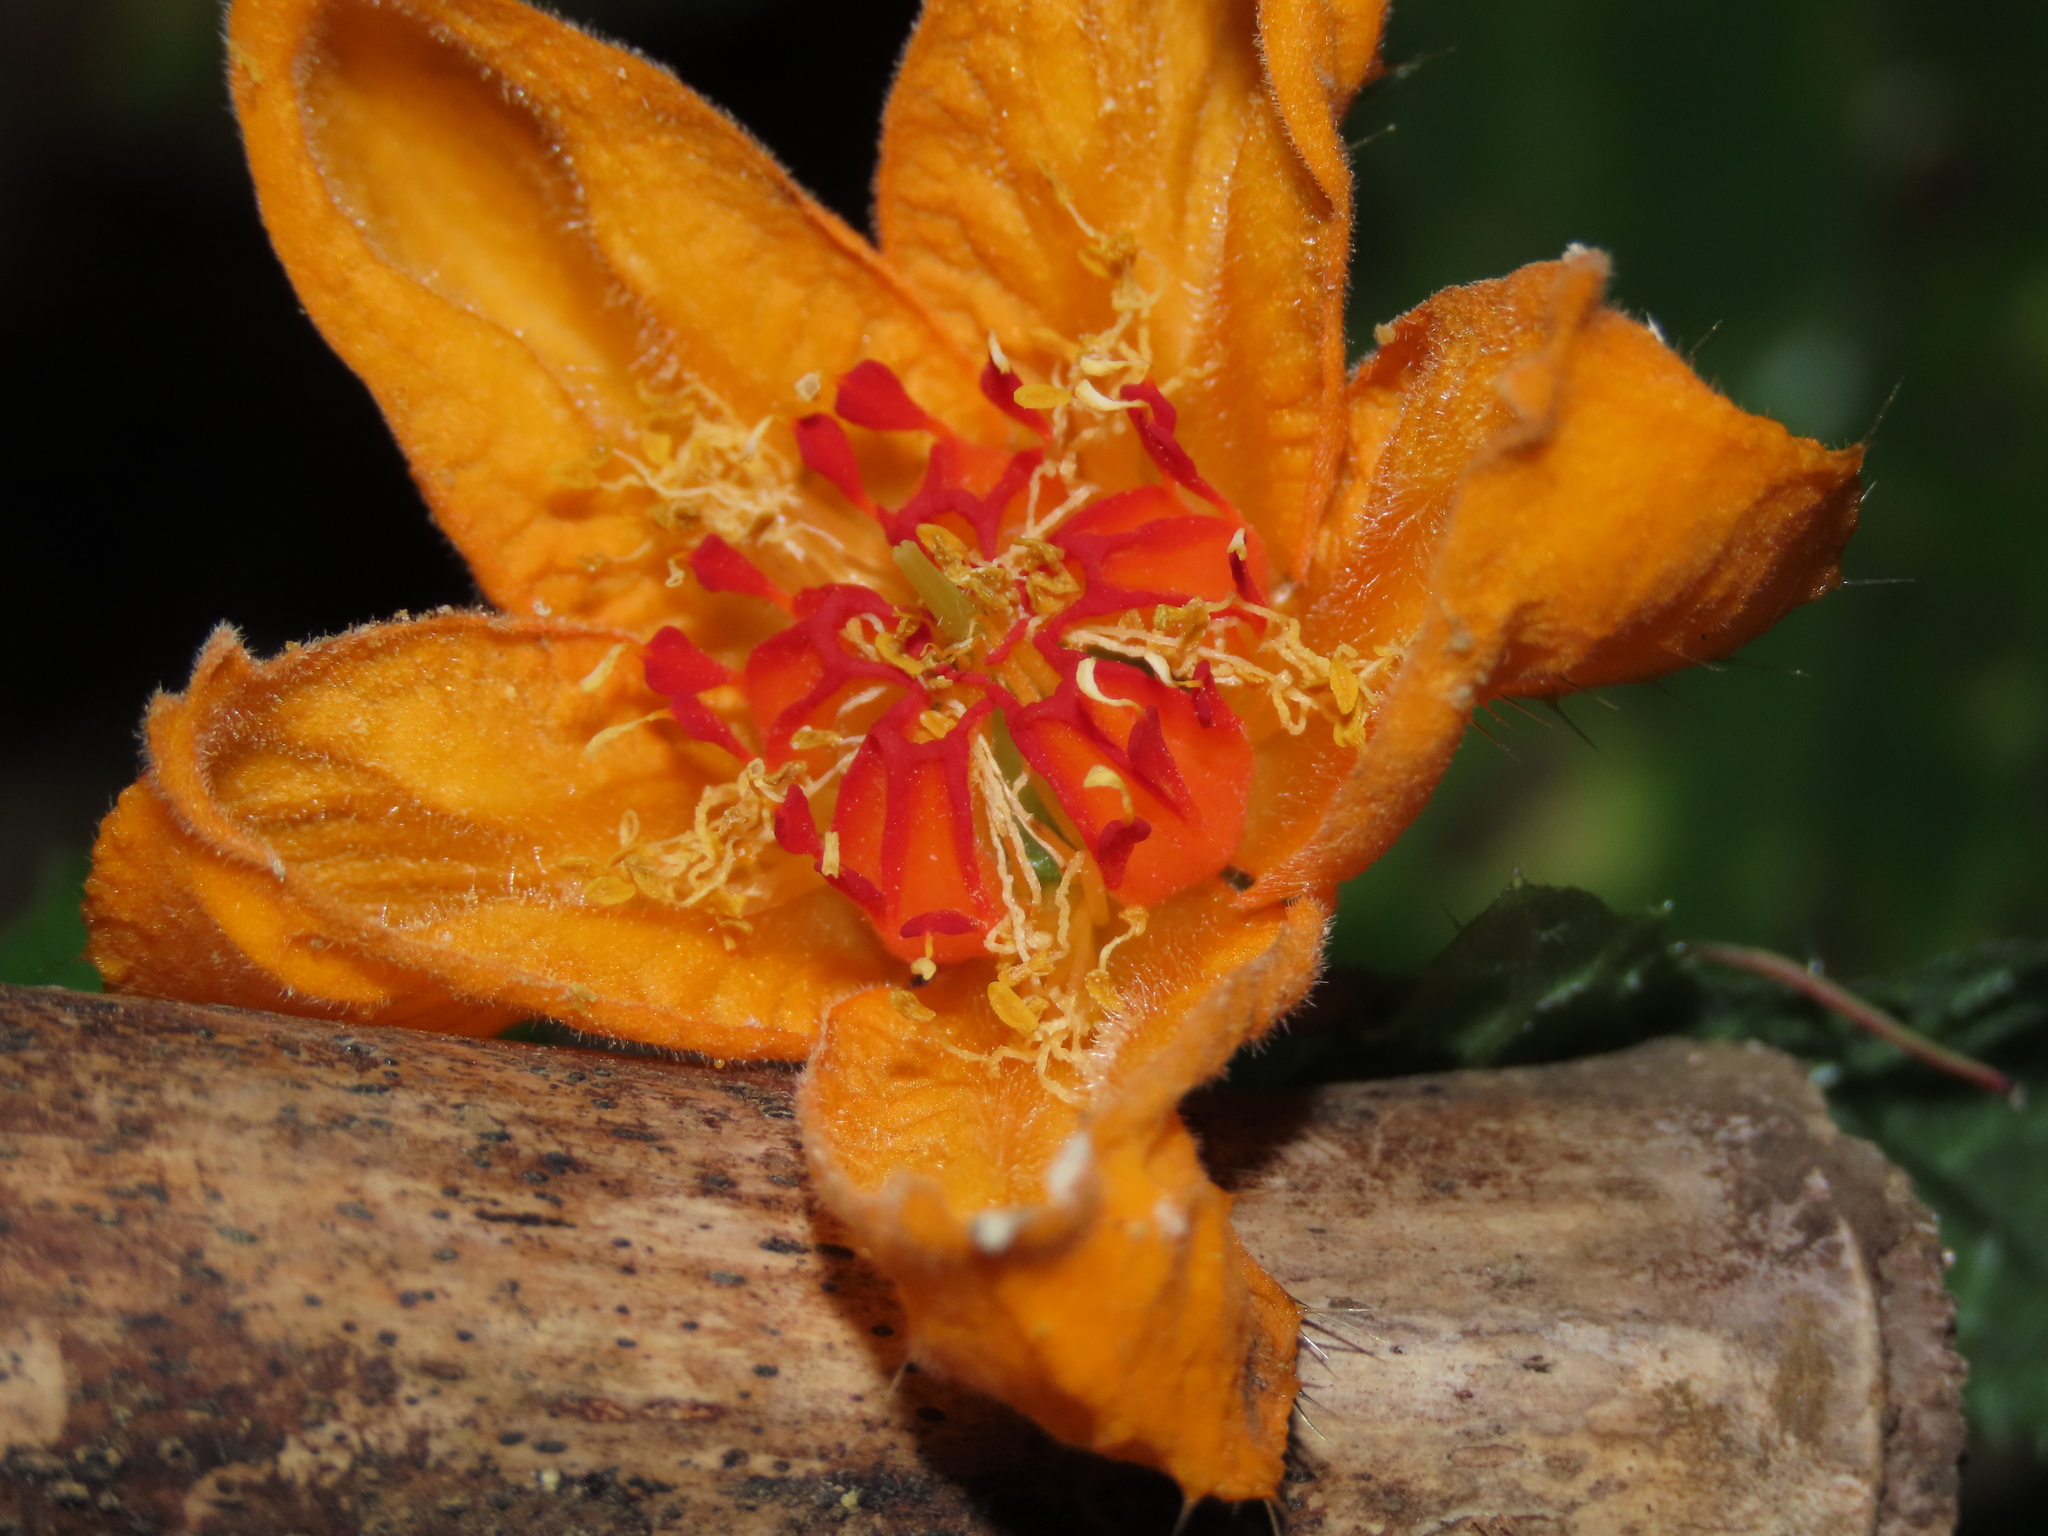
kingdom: Plantae
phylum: Tracheophyta
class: Magnoliopsida
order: Cornales
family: Loasaceae
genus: Loasa
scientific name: Loasa acanthifolia
